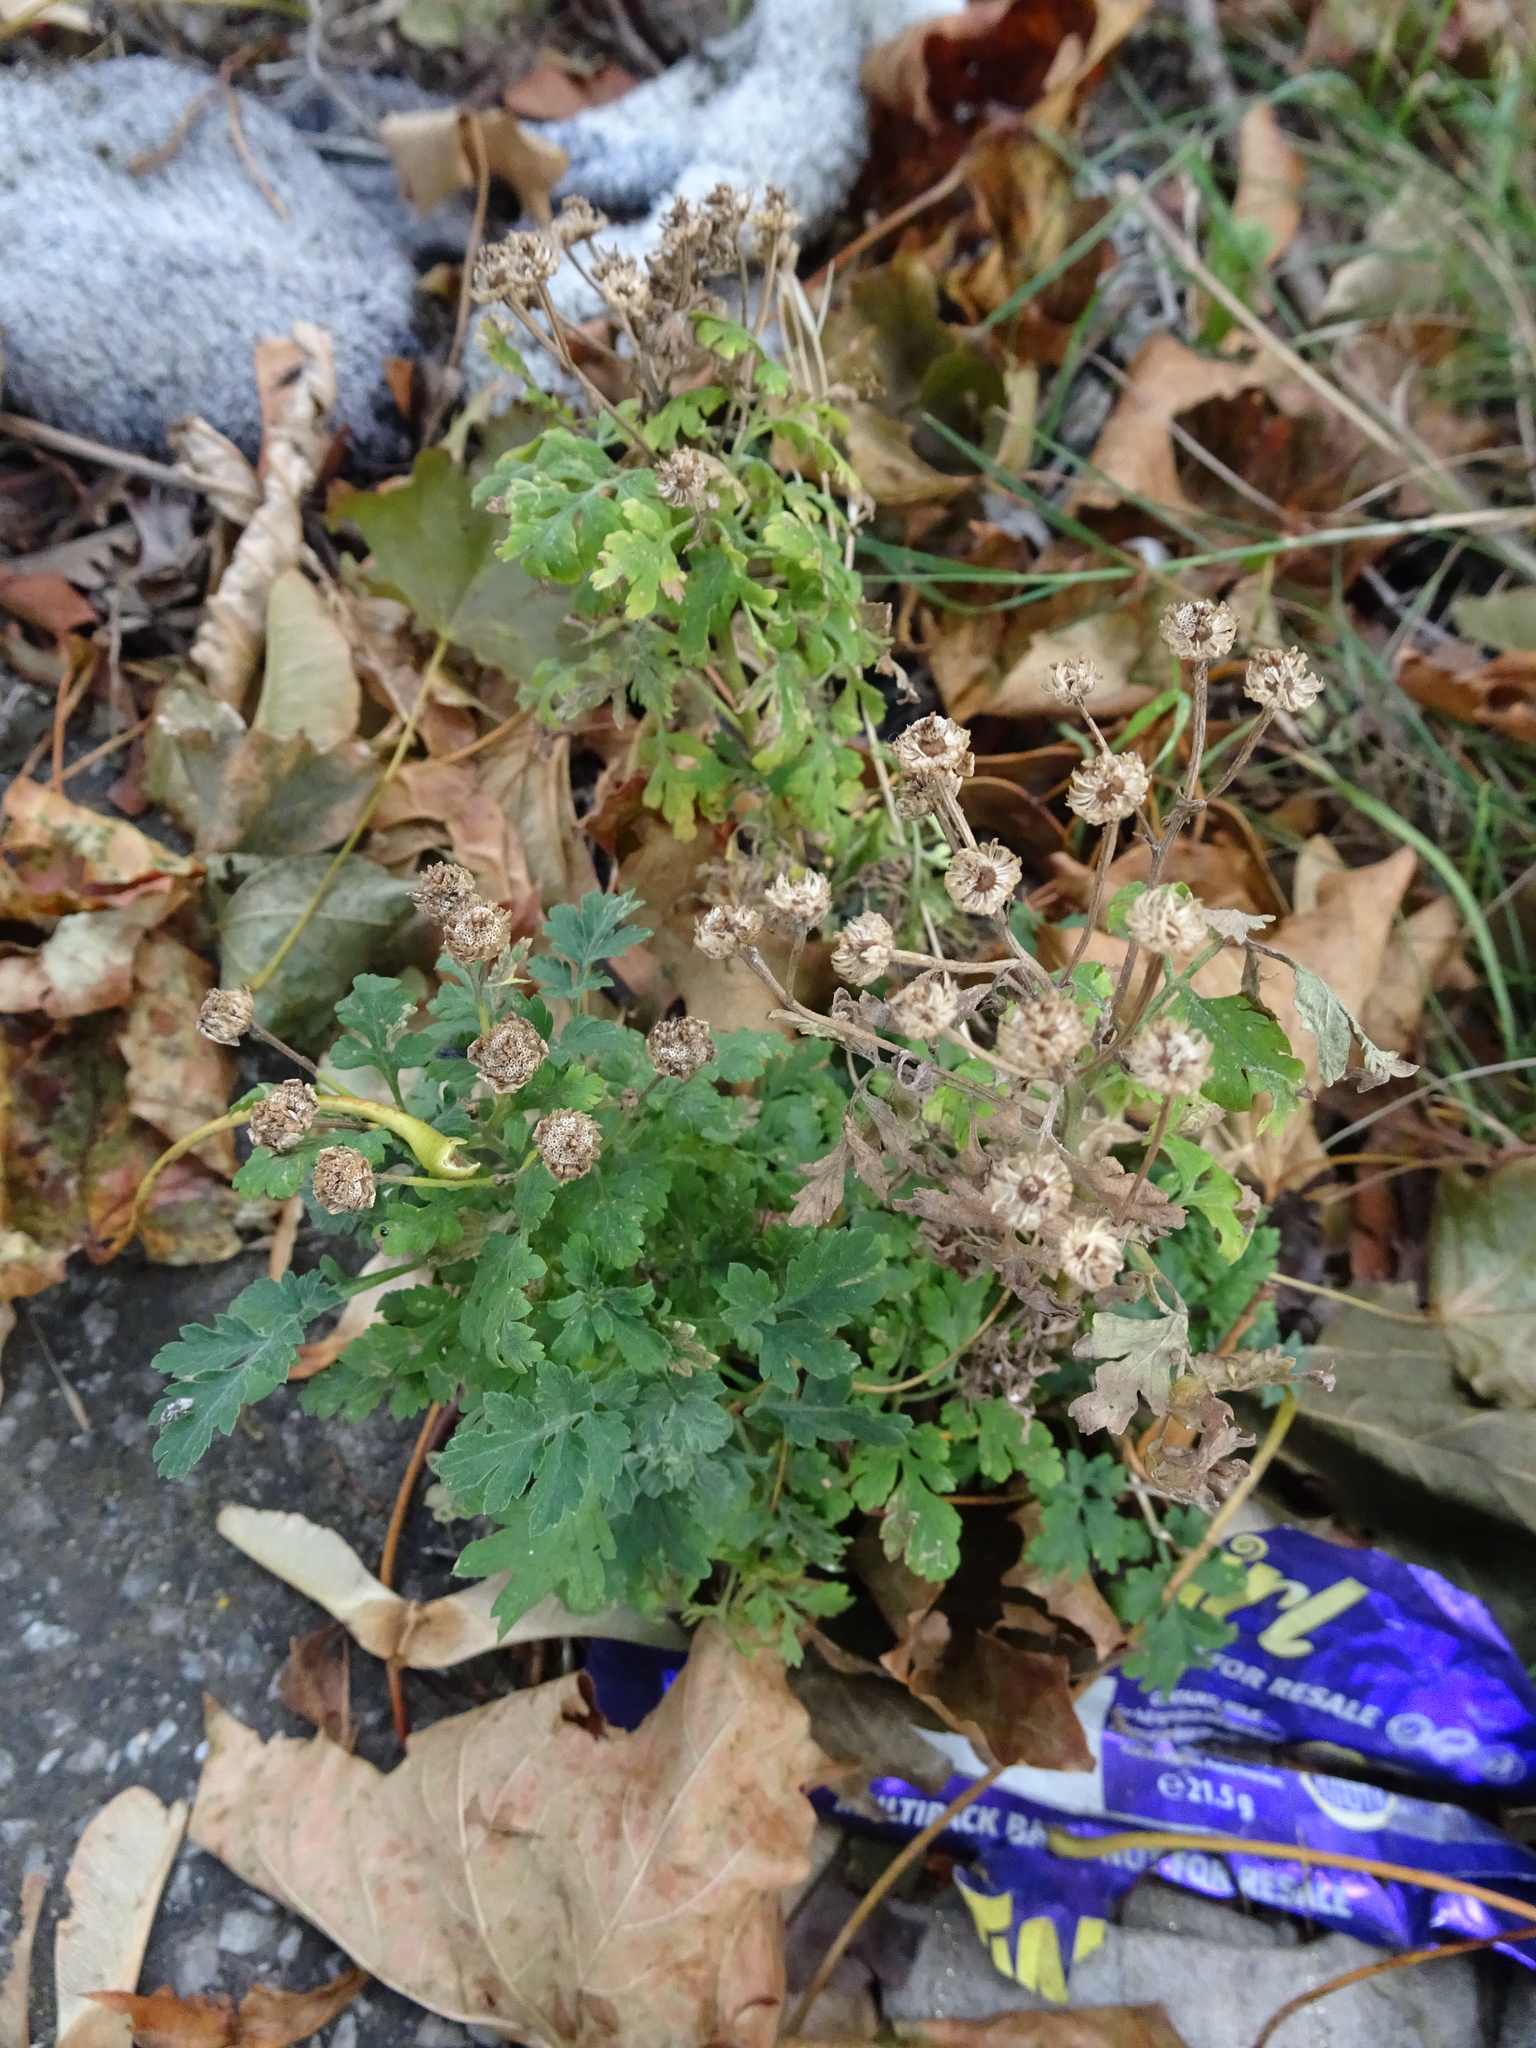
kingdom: Plantae
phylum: Tracheophyta
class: Magnoliopsida
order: Asterales
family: Asteraceae
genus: Tanacetum
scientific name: Tanacetum parthenium
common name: Feverfew
